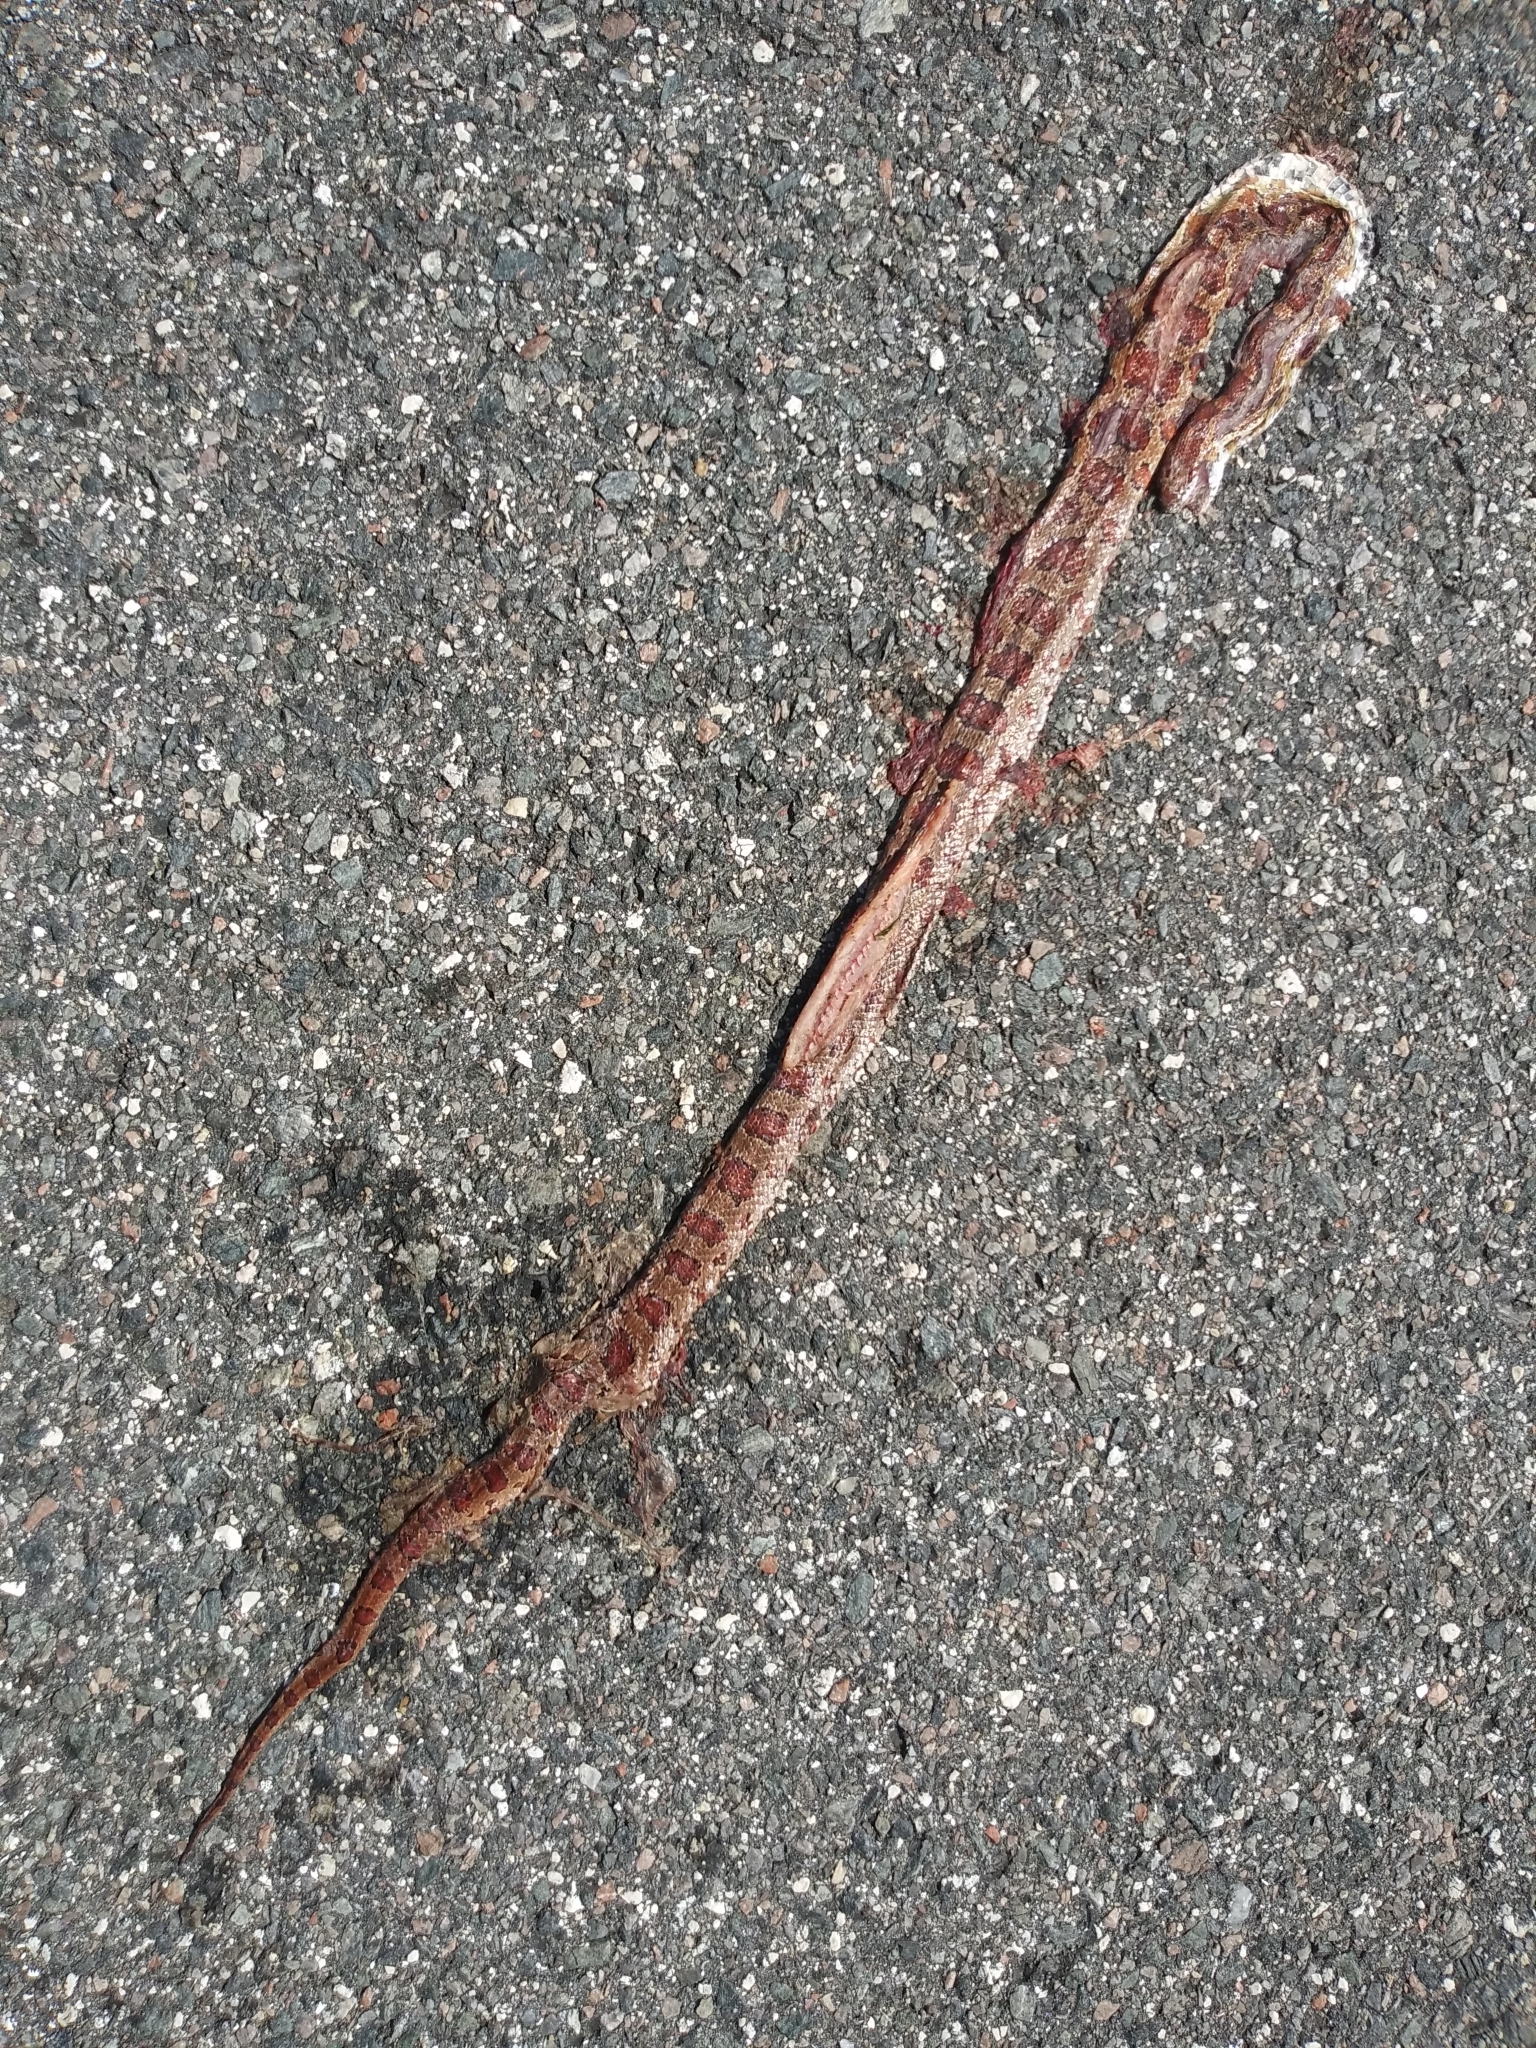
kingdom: Animalia
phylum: Chordata
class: Squamata
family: Colubridae
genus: Pantherophis
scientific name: Pantherophis guttatus
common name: Red cornsnake
